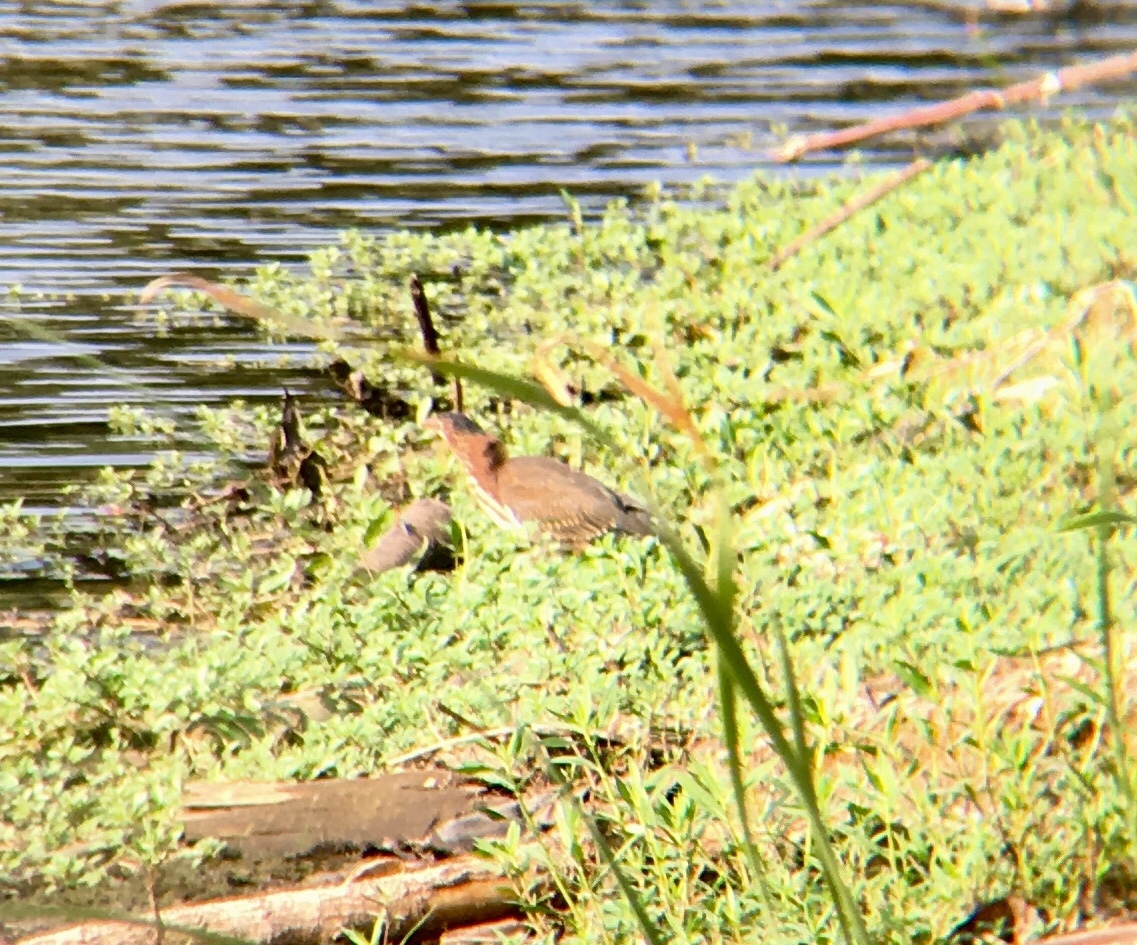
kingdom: Animalia
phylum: Chordata
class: Aves
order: Pelecaniformes
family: Ardeidae
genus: Butorides
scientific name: Butorides virescens
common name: Green heron
